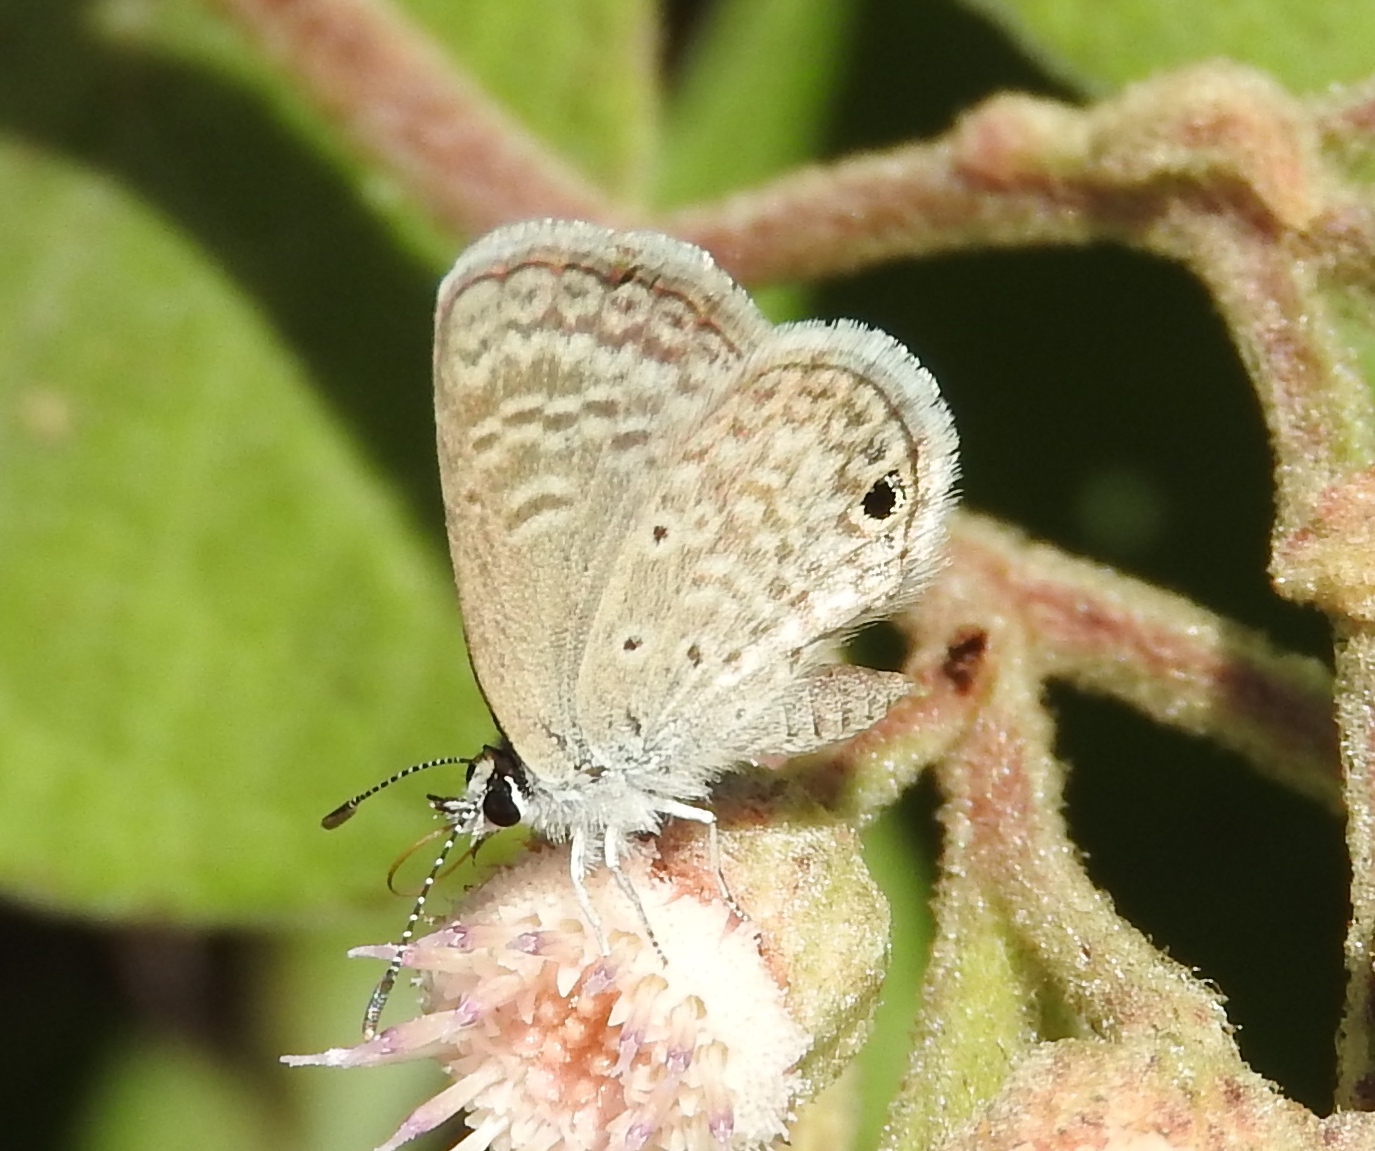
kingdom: Animalia
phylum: Arthropoda
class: Insecta
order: Lepidoptera
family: Lycaenidae
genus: Hemiargus
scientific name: Hemiargus ceraunus
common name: Ceraunus blue
